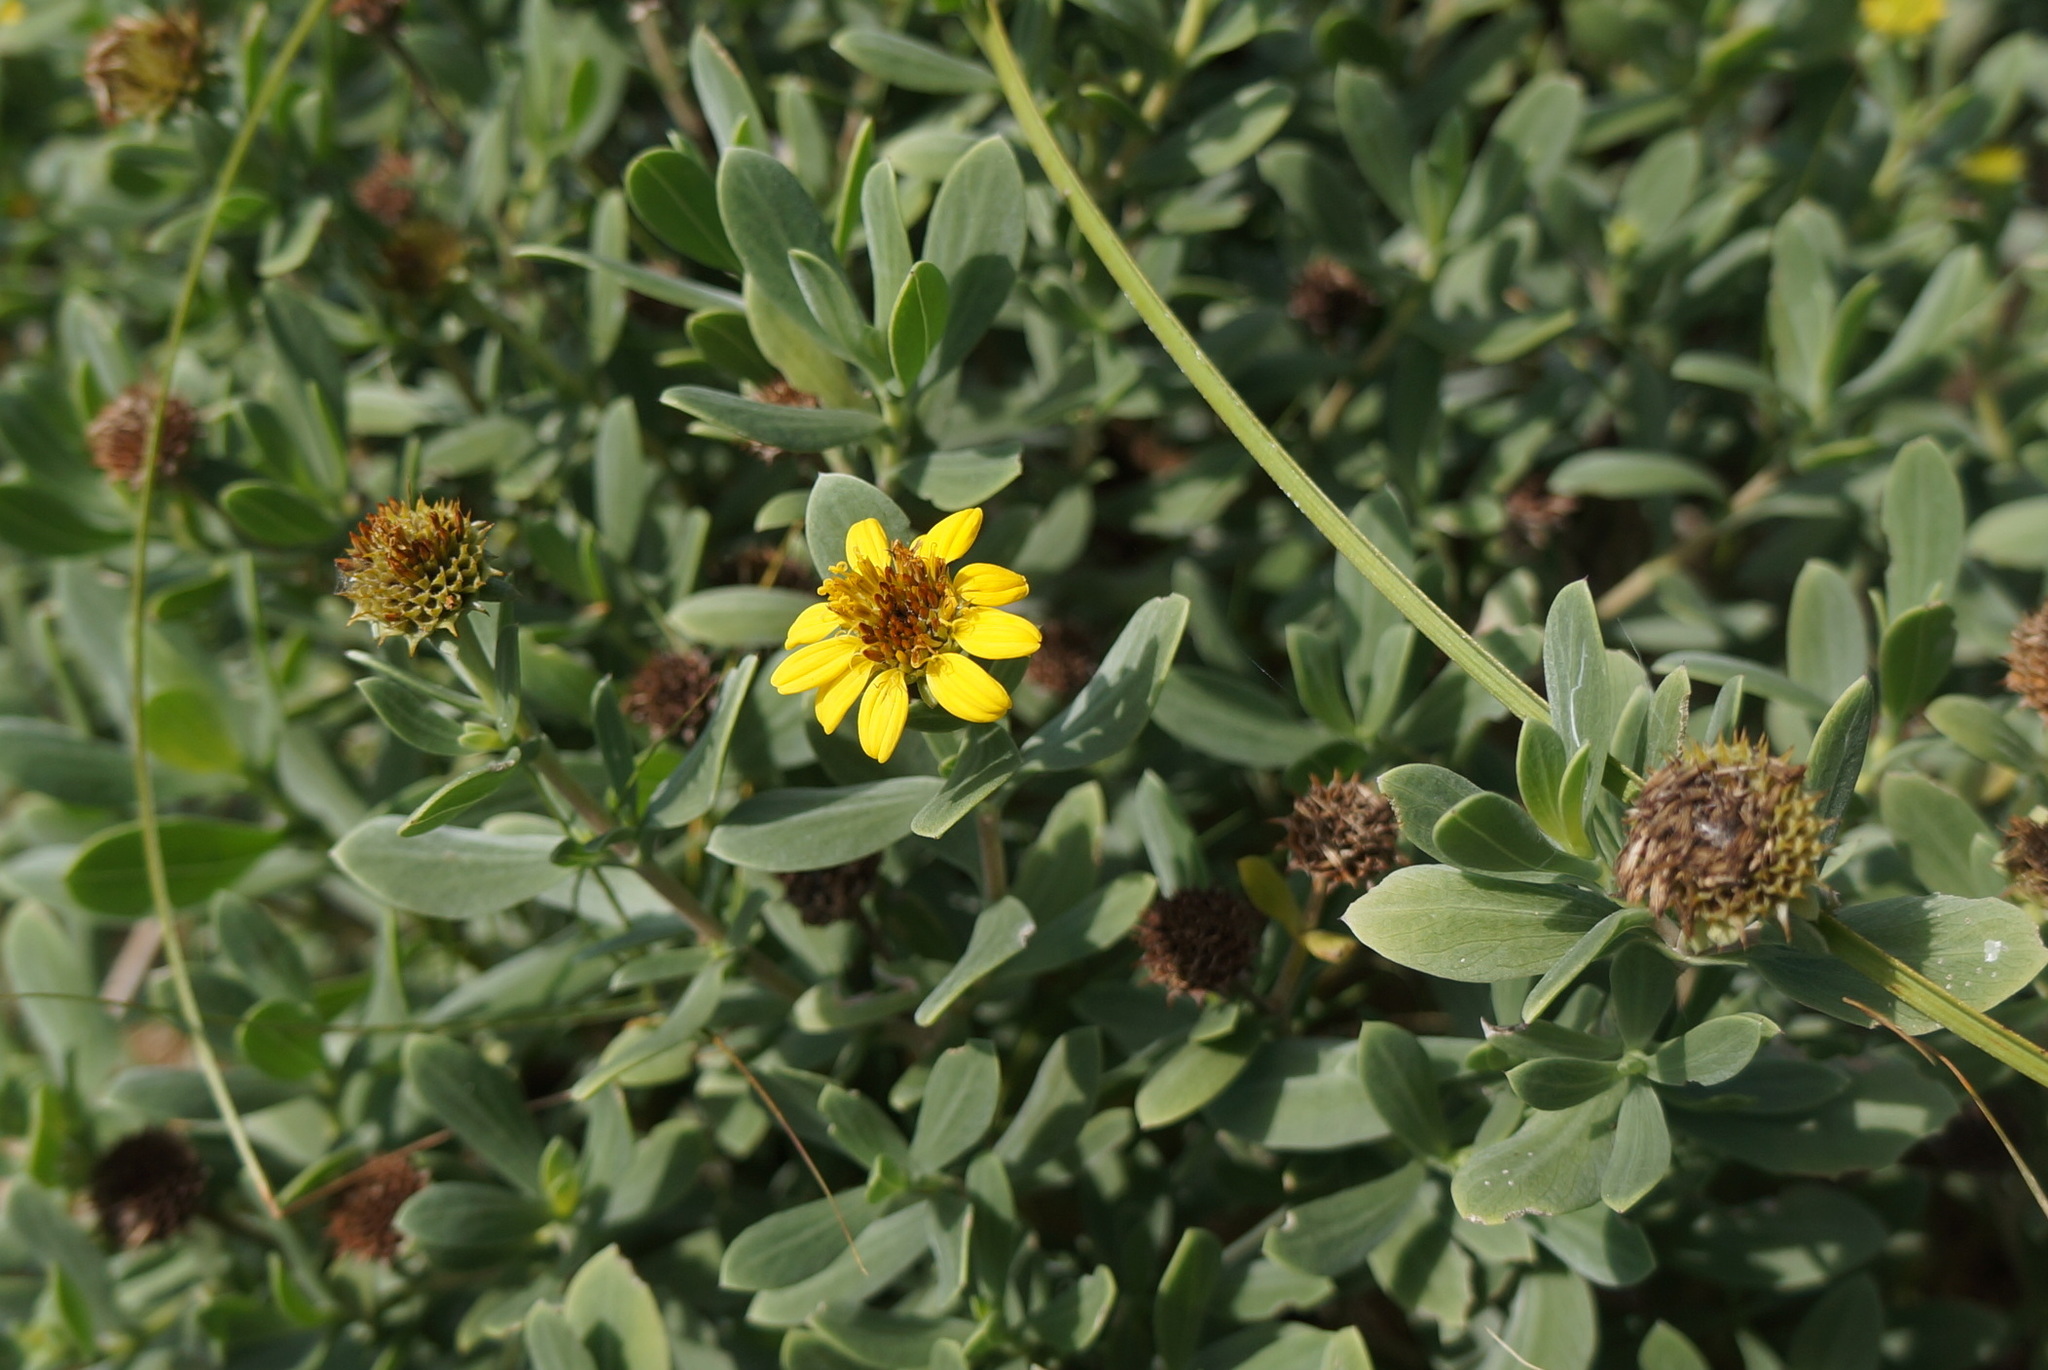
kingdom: Plantae
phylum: Tracheophyta
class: Magnoliopsida
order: Asterales
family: Asteraceae
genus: Borrichia
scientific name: Borrichia frutescens
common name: Sea oxeye
